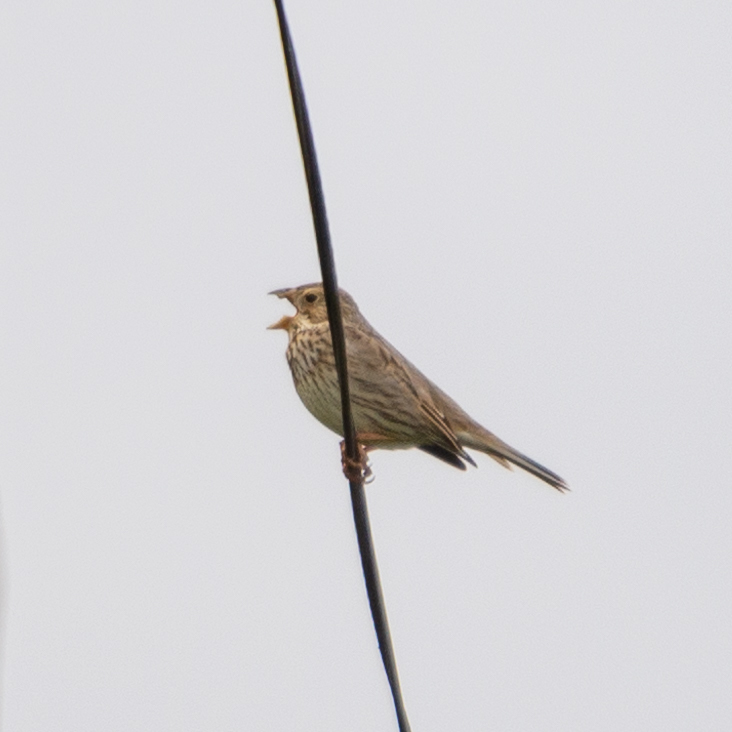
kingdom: Animalia
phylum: Chordata
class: Aves
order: Passeriformes
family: Emberizidae
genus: Emberiza
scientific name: Emberiza calandra
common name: Corn bunting
